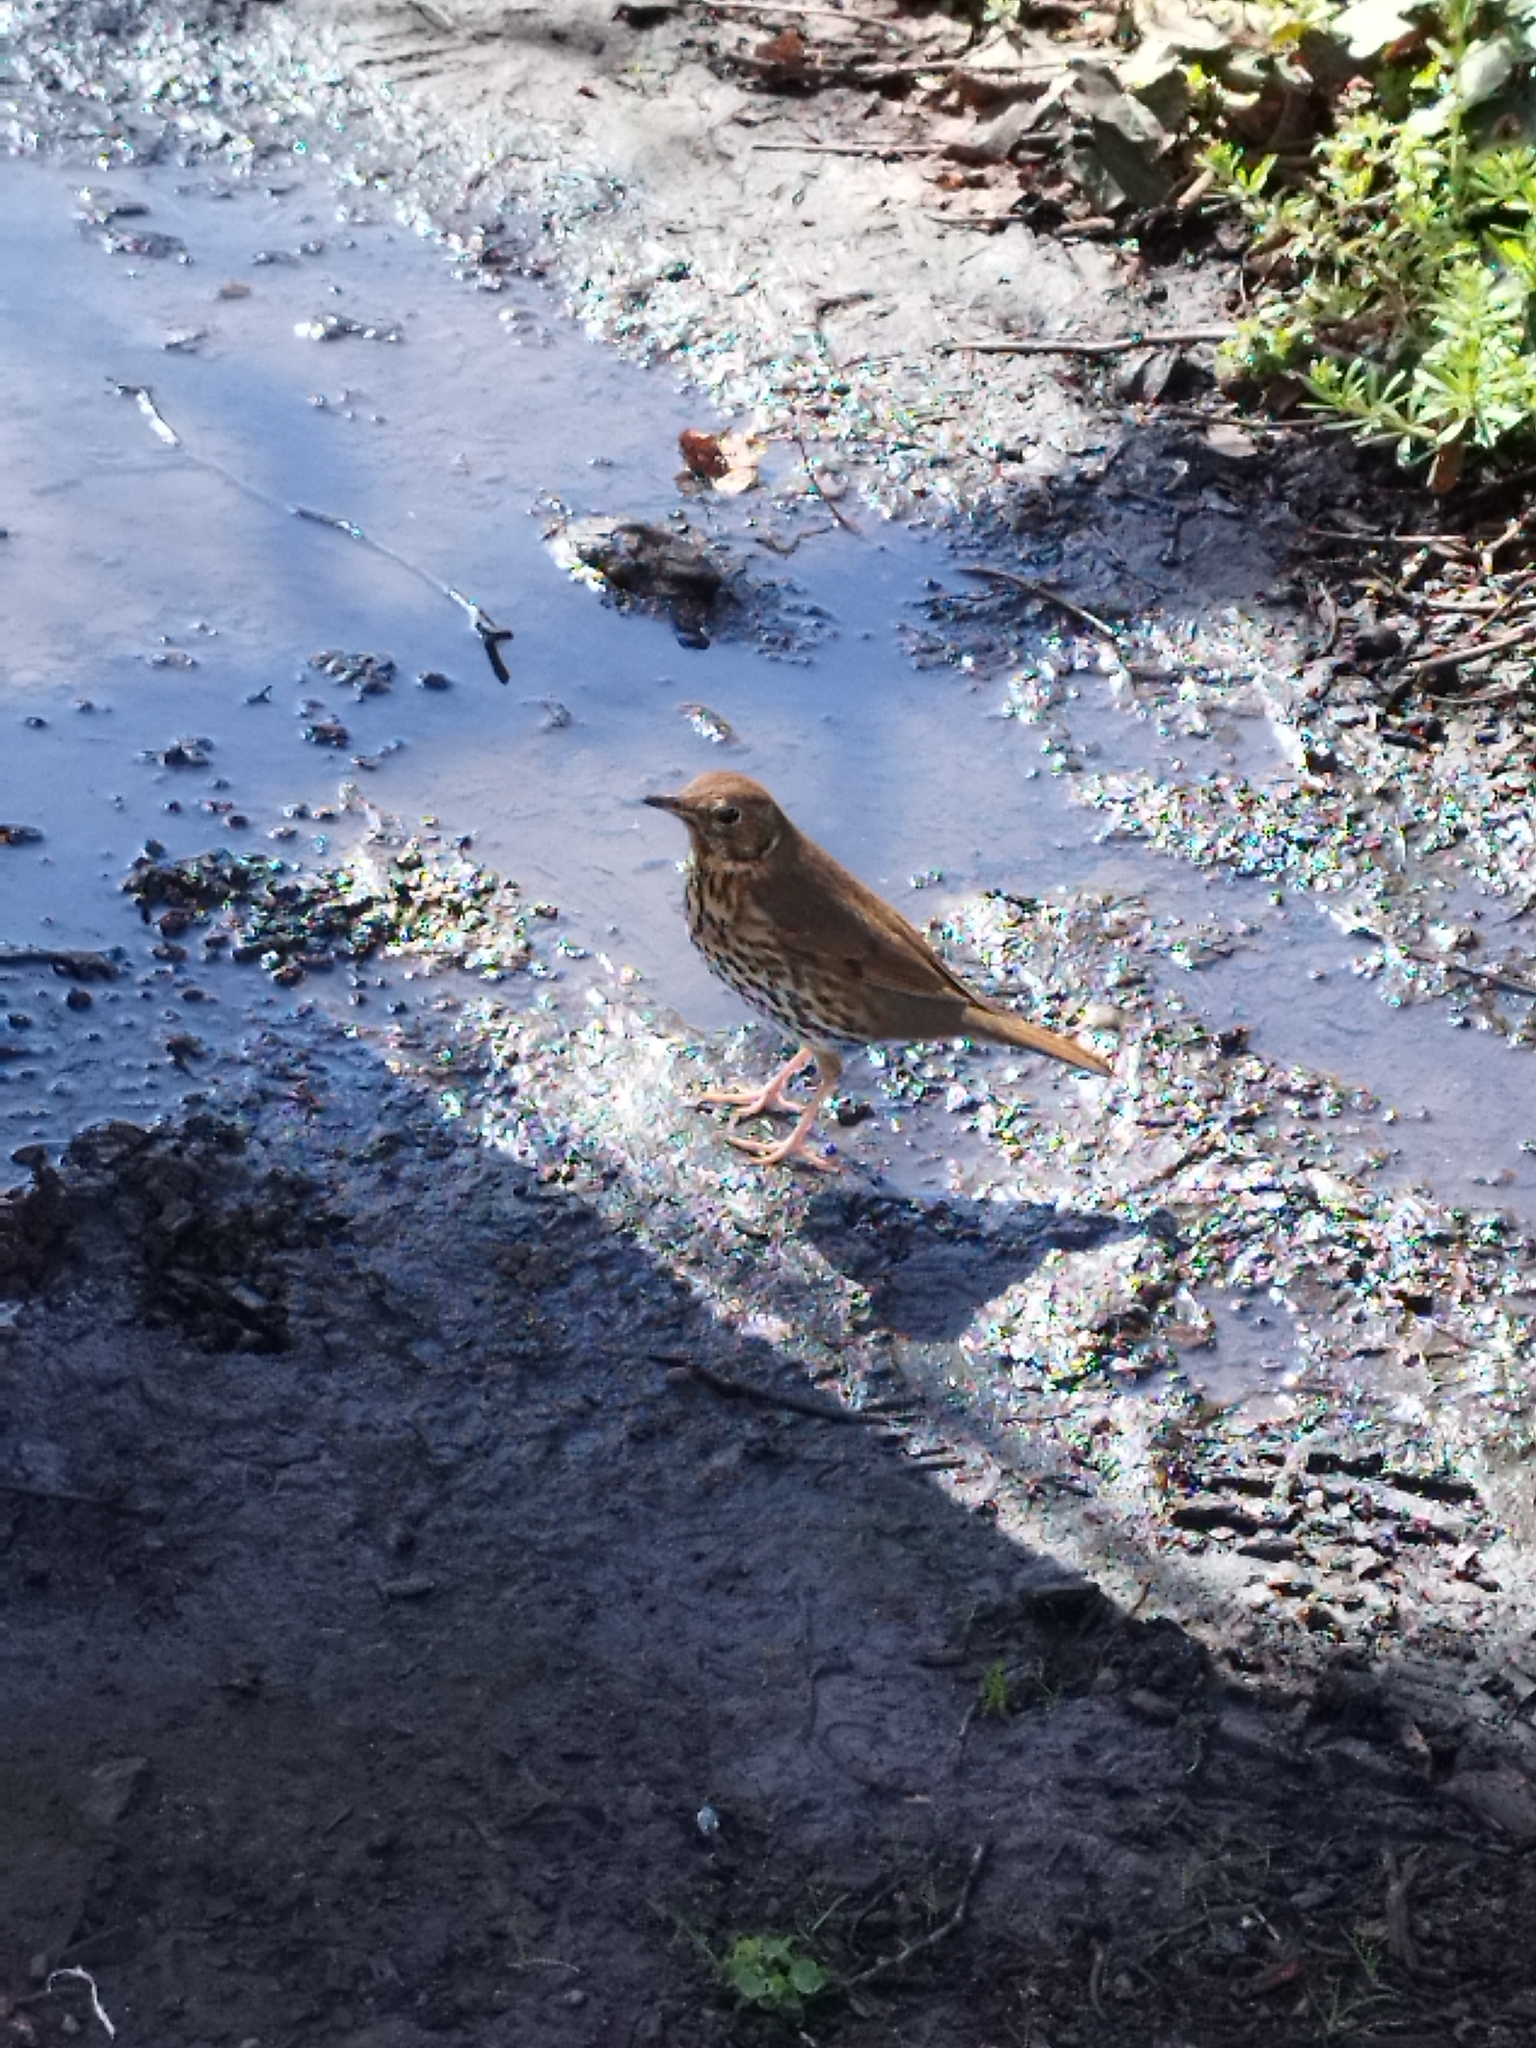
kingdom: Animalia
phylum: Chordata
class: Aves
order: Passeriformes
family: Turdidae
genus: Turdus
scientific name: Turdus philomelos
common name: Song thrush
